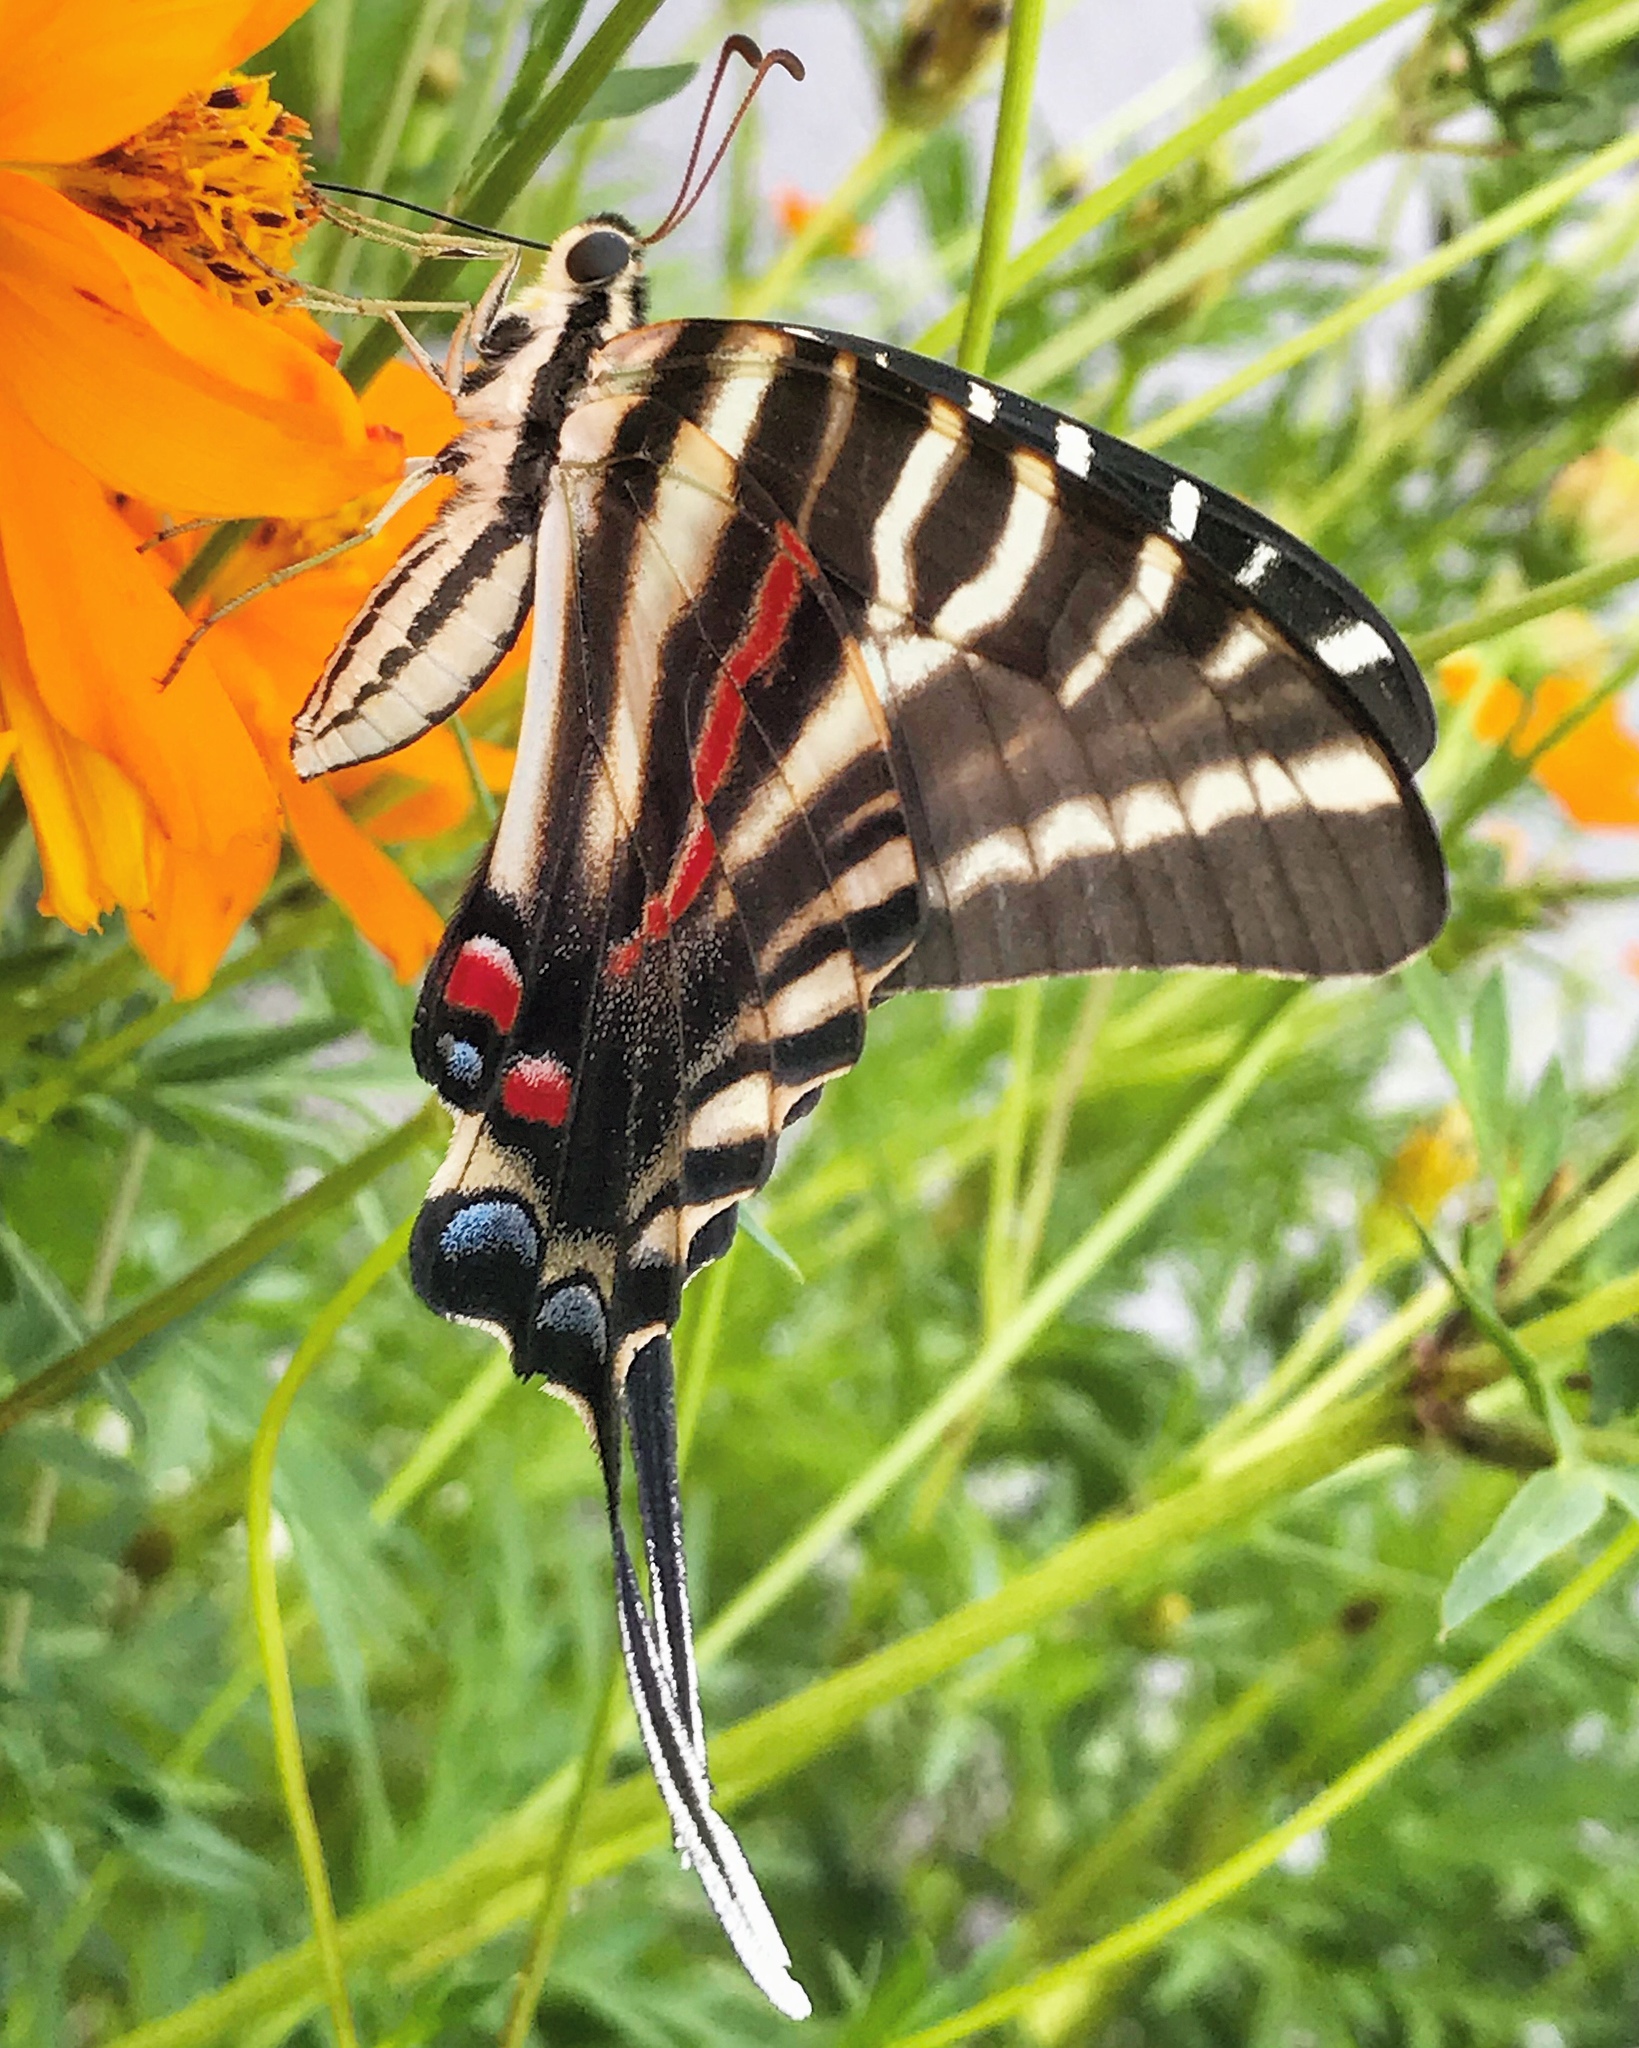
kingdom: Animalia
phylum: Arthropoda
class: Insecta
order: Lepidoptera
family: Papilionidae
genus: Protographium
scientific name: Protographium marcellus
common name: Zebra swallowtail
